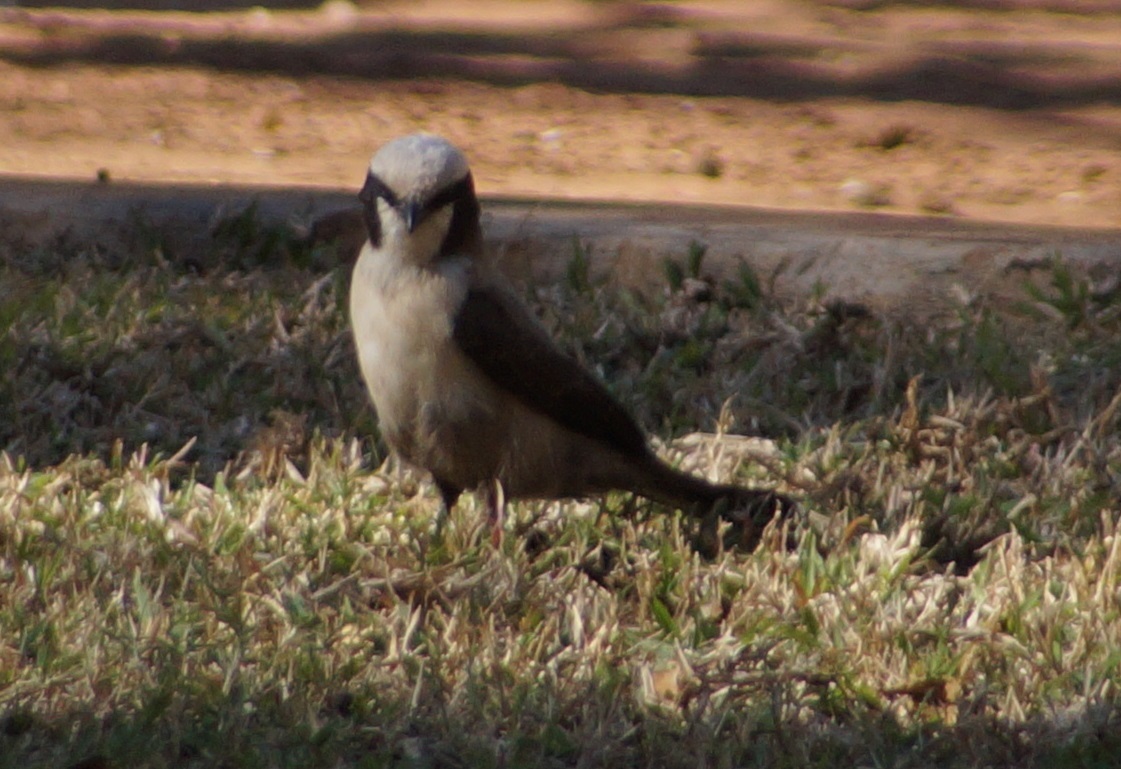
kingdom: Animalia
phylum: Chordata
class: Aves
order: Passeriformes
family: Laniidae
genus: Eurocephalus
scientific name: Eurocephalus anguitimens
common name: Southern white-crowned shrike
